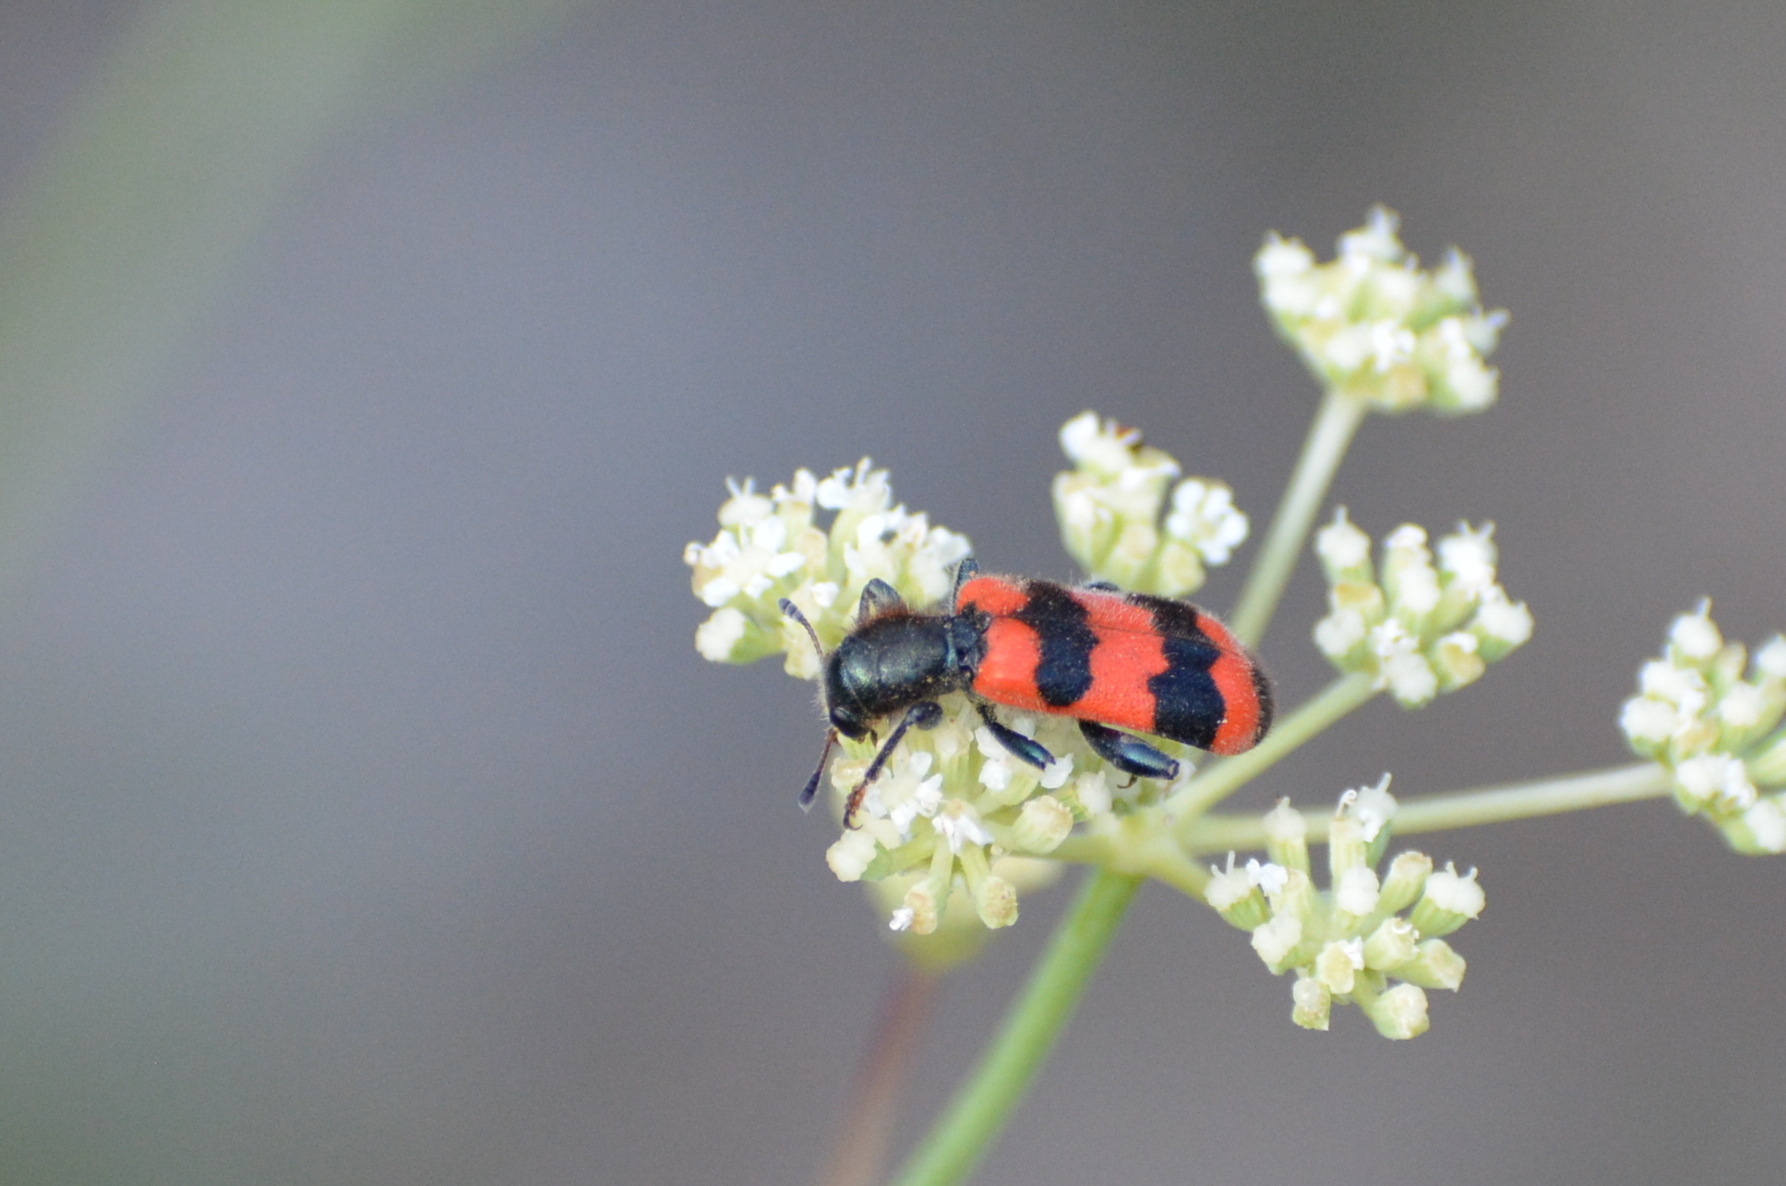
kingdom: Animalia
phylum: Arthropoda
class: Insecta
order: Coleoptera
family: Cleridae
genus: Trichodes
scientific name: Trichodes apiarius
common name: Bee-eating beetle
